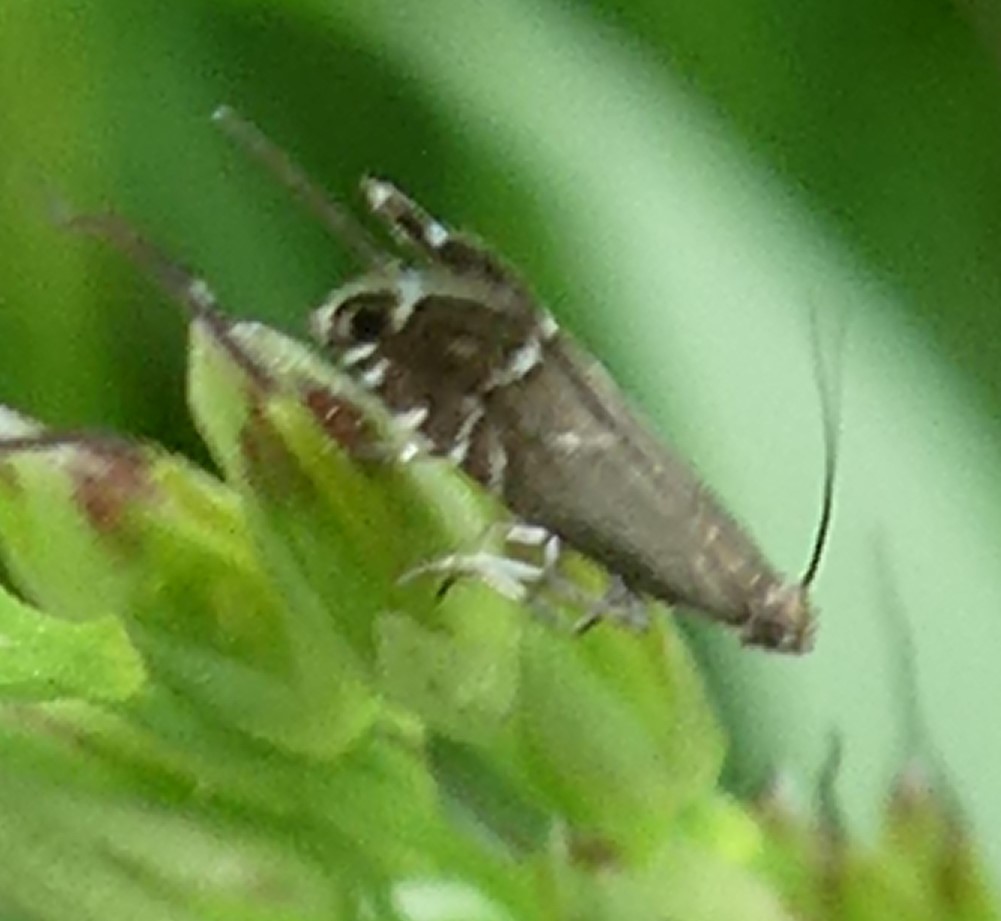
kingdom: Animalia
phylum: Arthropoda
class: Insecta
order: Lepidoptera
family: Glyphipterigidae
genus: Glyphipterix
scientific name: Glyphipterix simpliciella
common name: Cocksfoot moth
